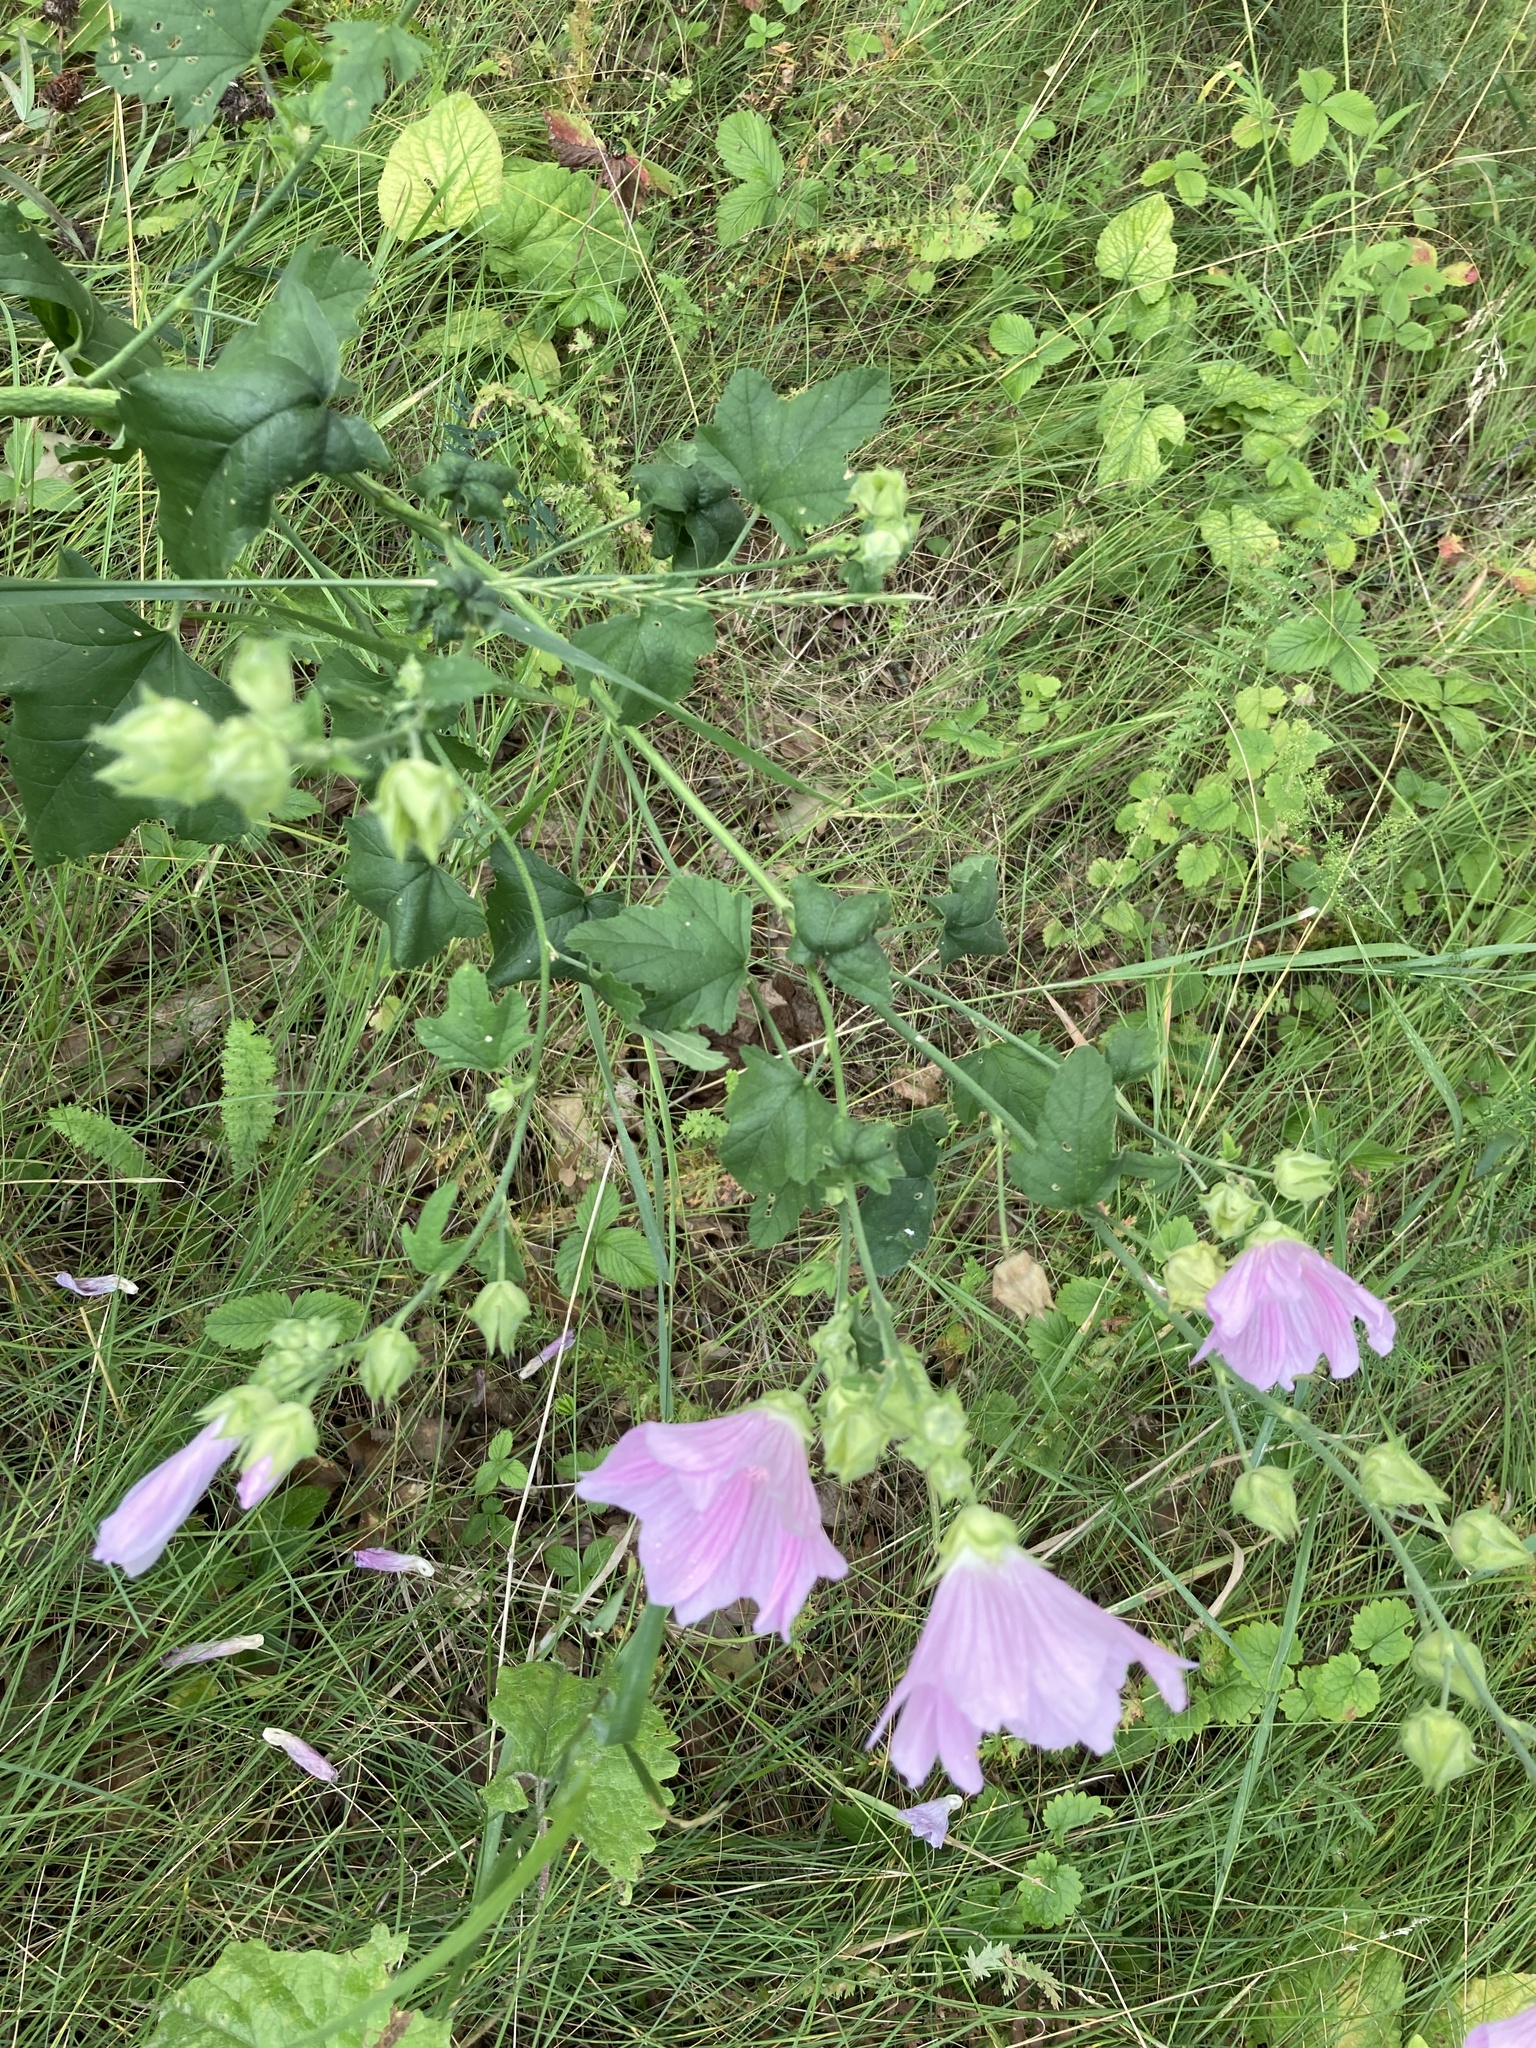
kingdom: Plantae
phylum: Tracheophyta
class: Magnoliopsida
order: Malvales
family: Malvaceae
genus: Malva
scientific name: Malva thuringiaca
